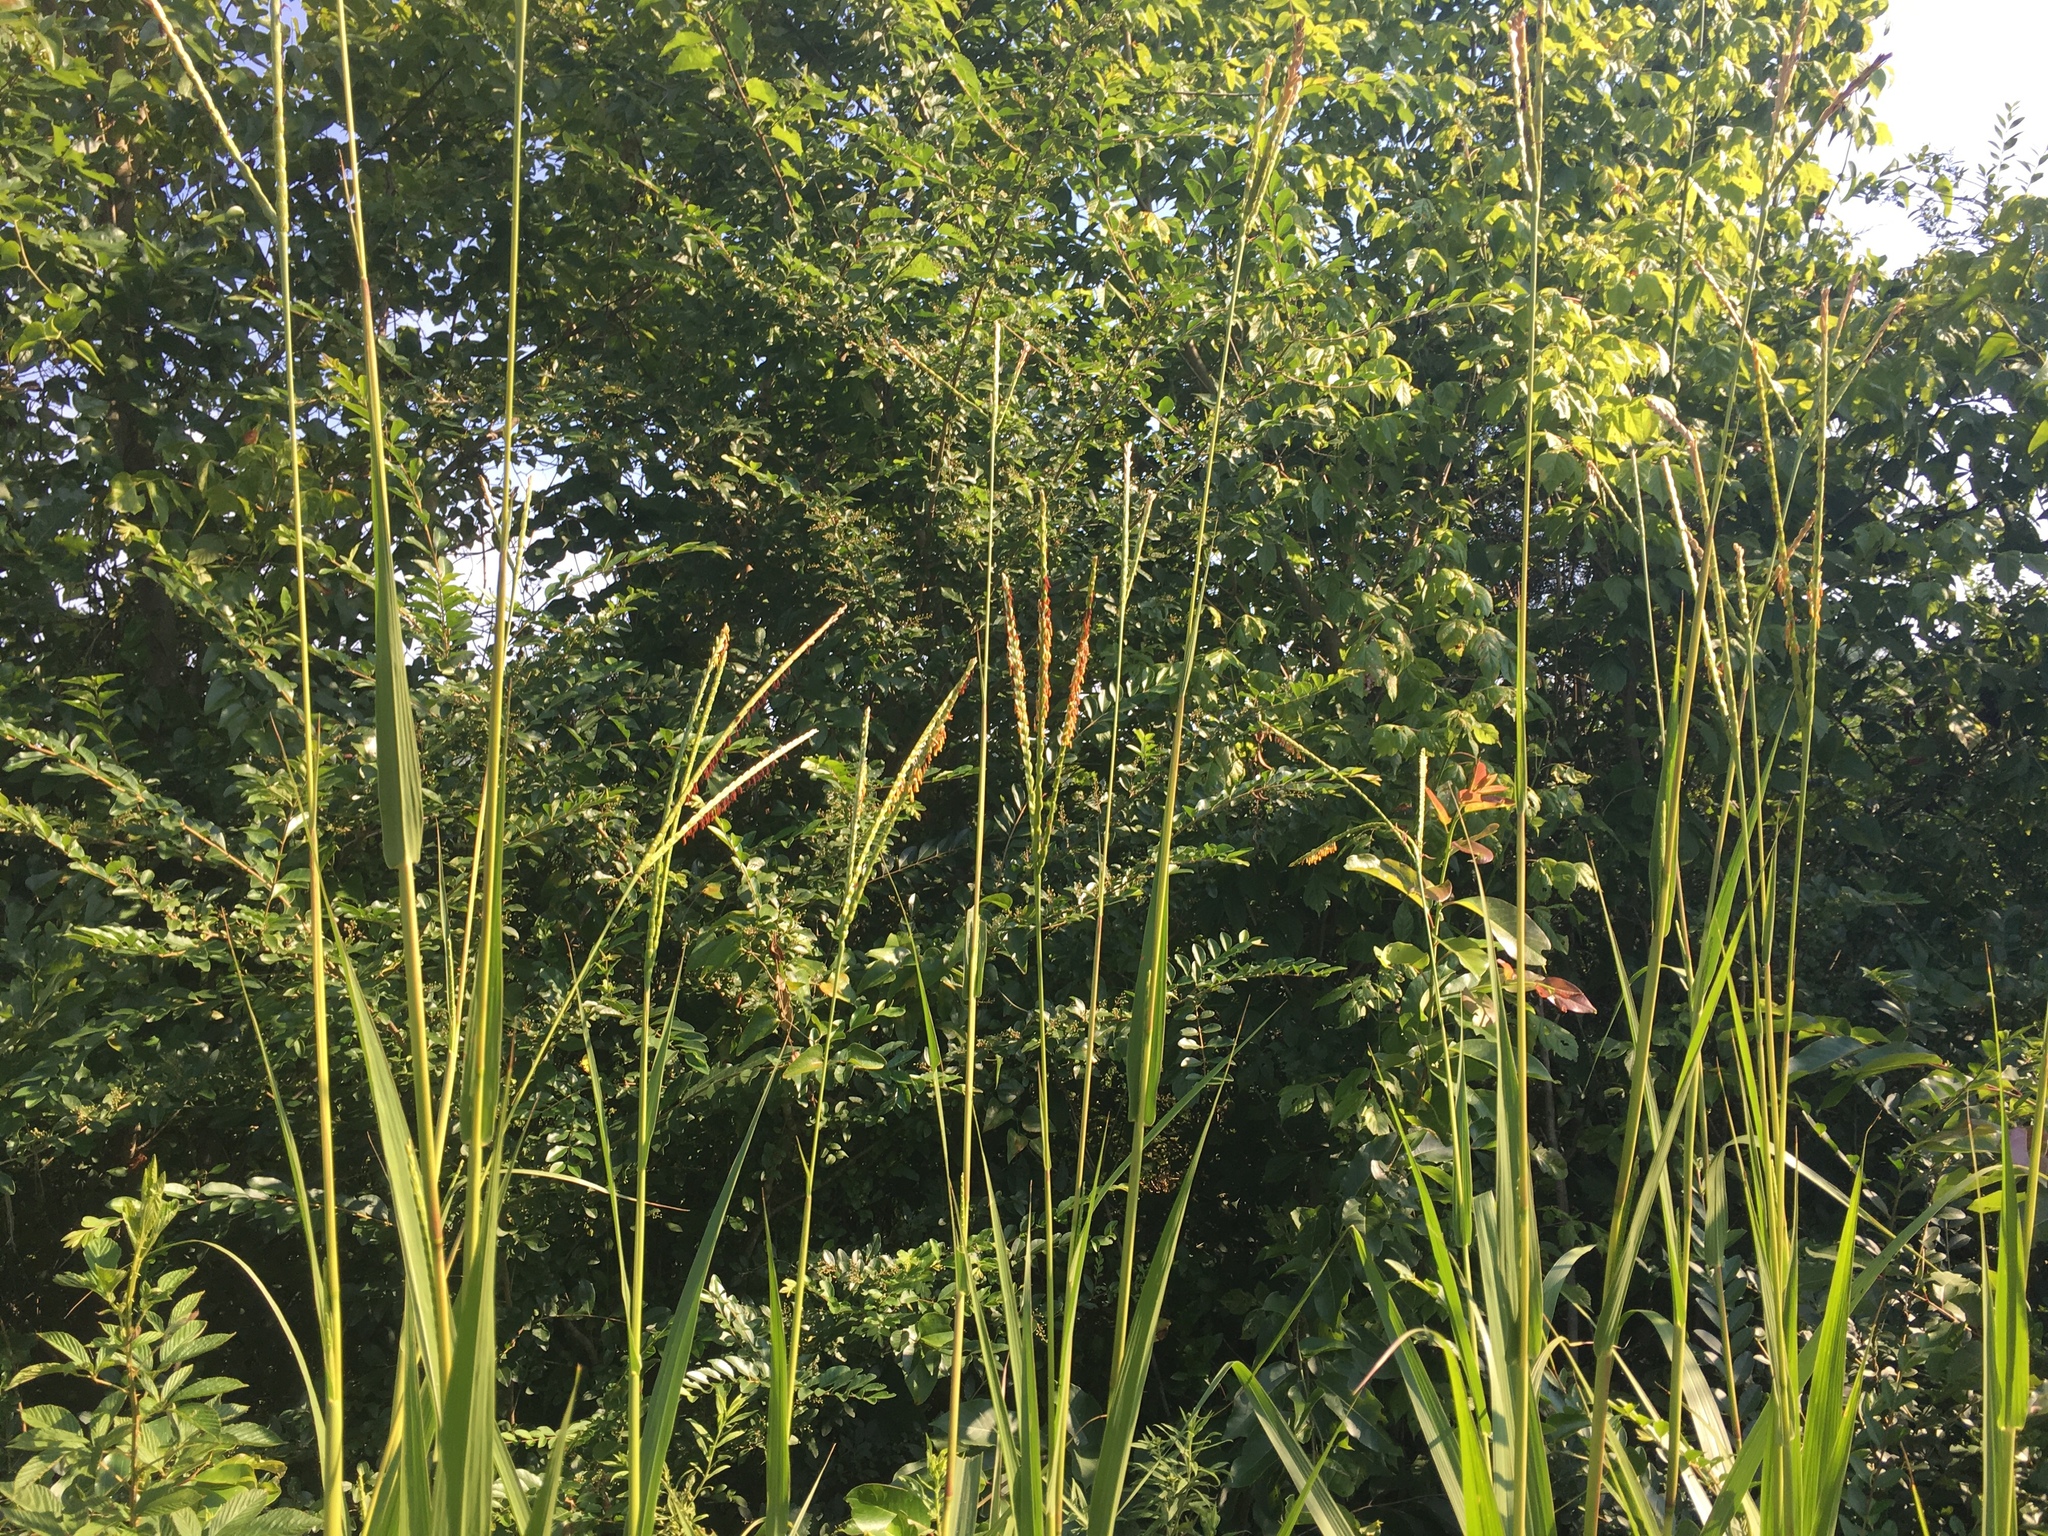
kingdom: Plantae
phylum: Tracheophyta
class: Liliopsida
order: Poales
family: Poaceae
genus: Tripsacum
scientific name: Tripsacum dactyloides
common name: Buffalo-grass
